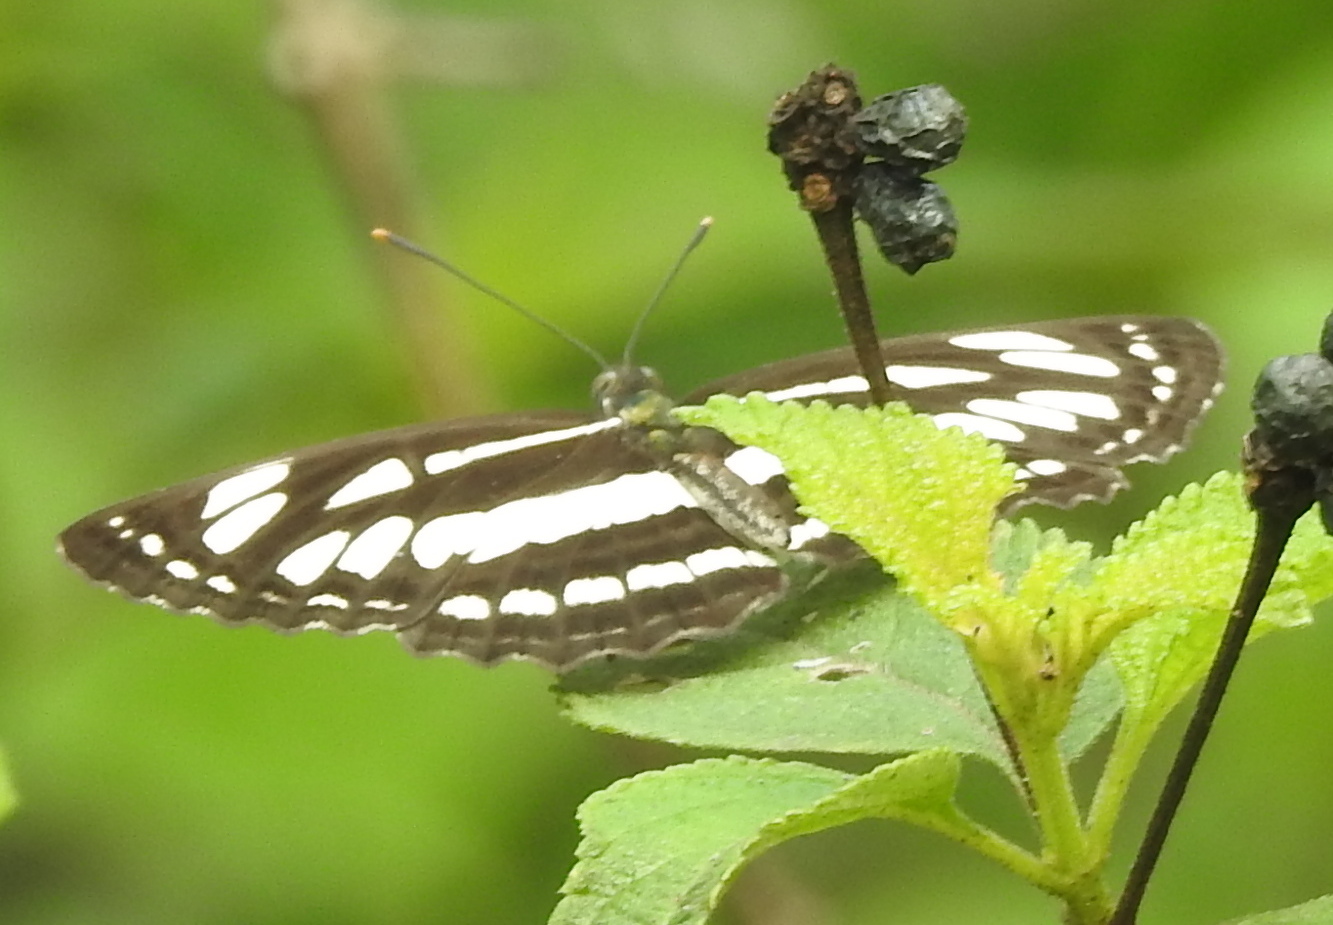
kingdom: Animalia
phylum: Arthropoda
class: Insecta
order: Lepidoptera
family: Nymphalidae
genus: Neptis
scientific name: Neptis hylas
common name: Common sailer
